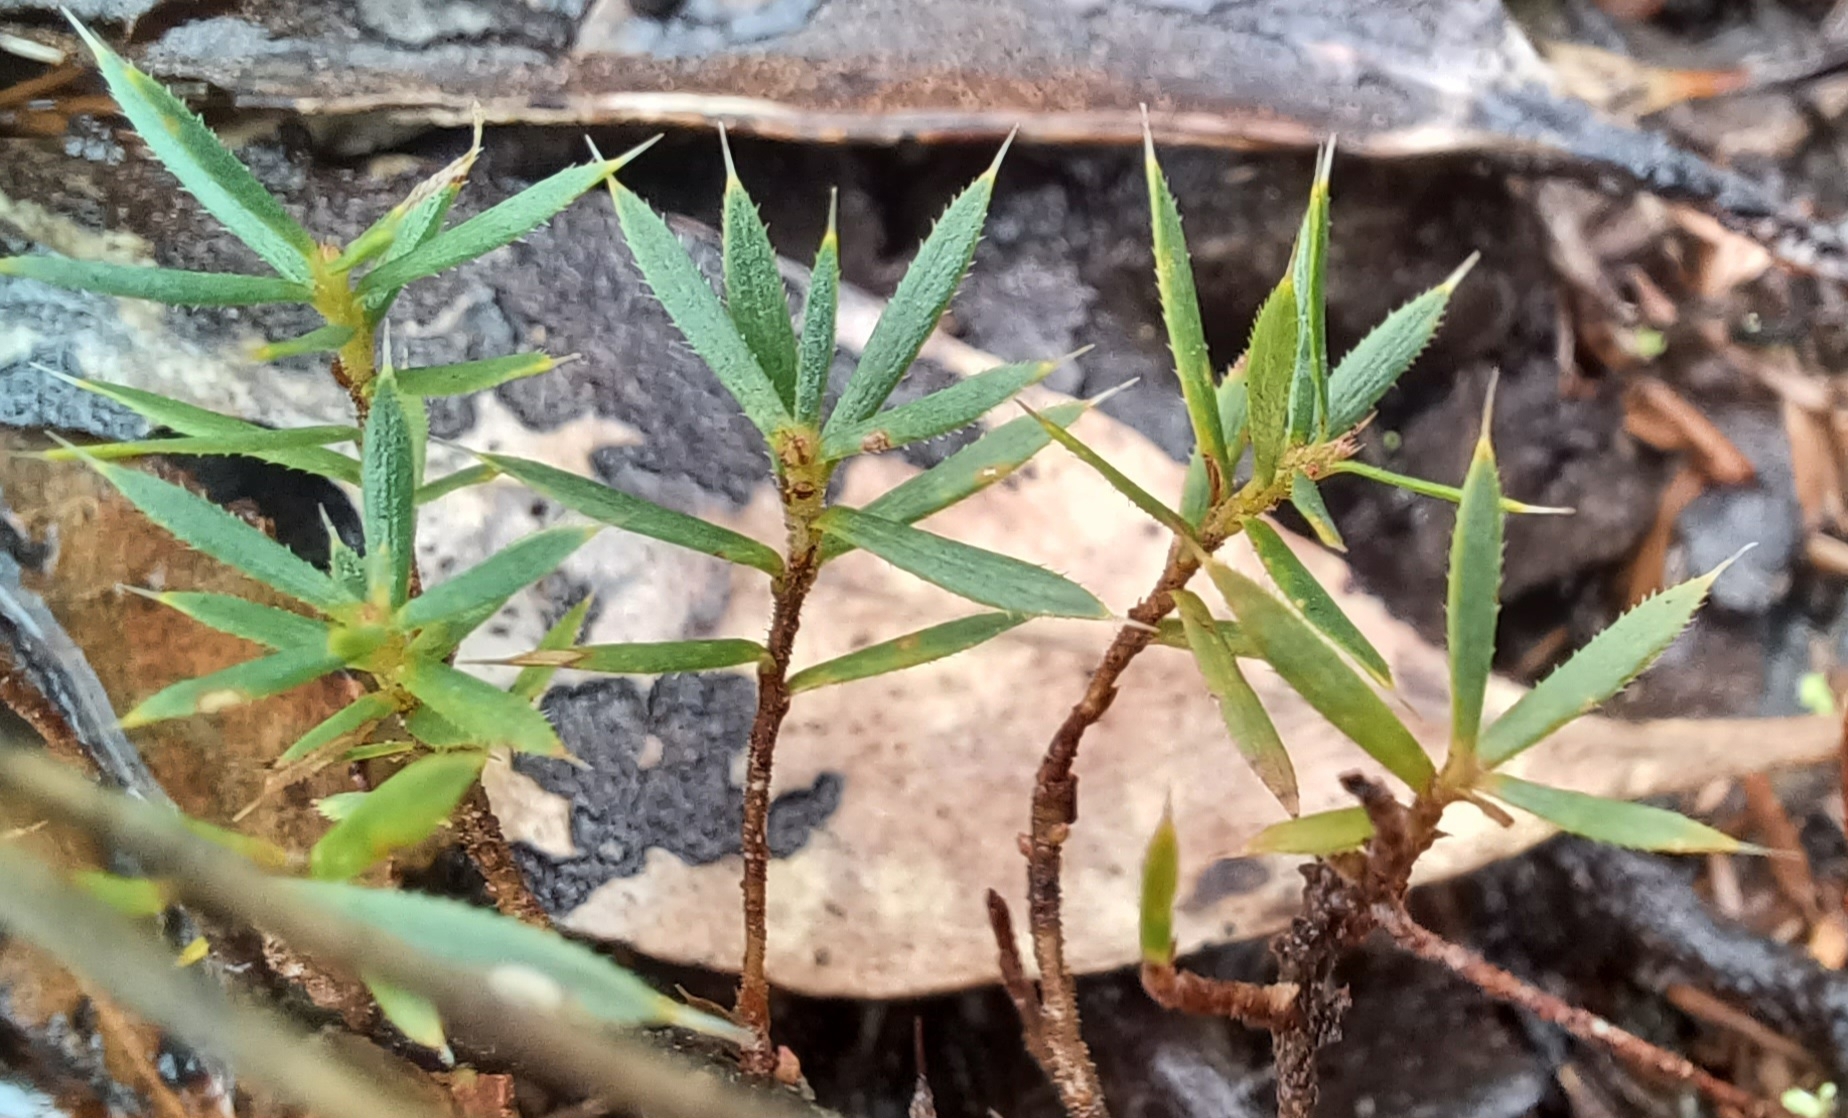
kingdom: Plantae
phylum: Tracheophyta
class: Magnoliopsida
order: Ericales
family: Ericaceae
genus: Styphelia
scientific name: Styphelia humifusa
